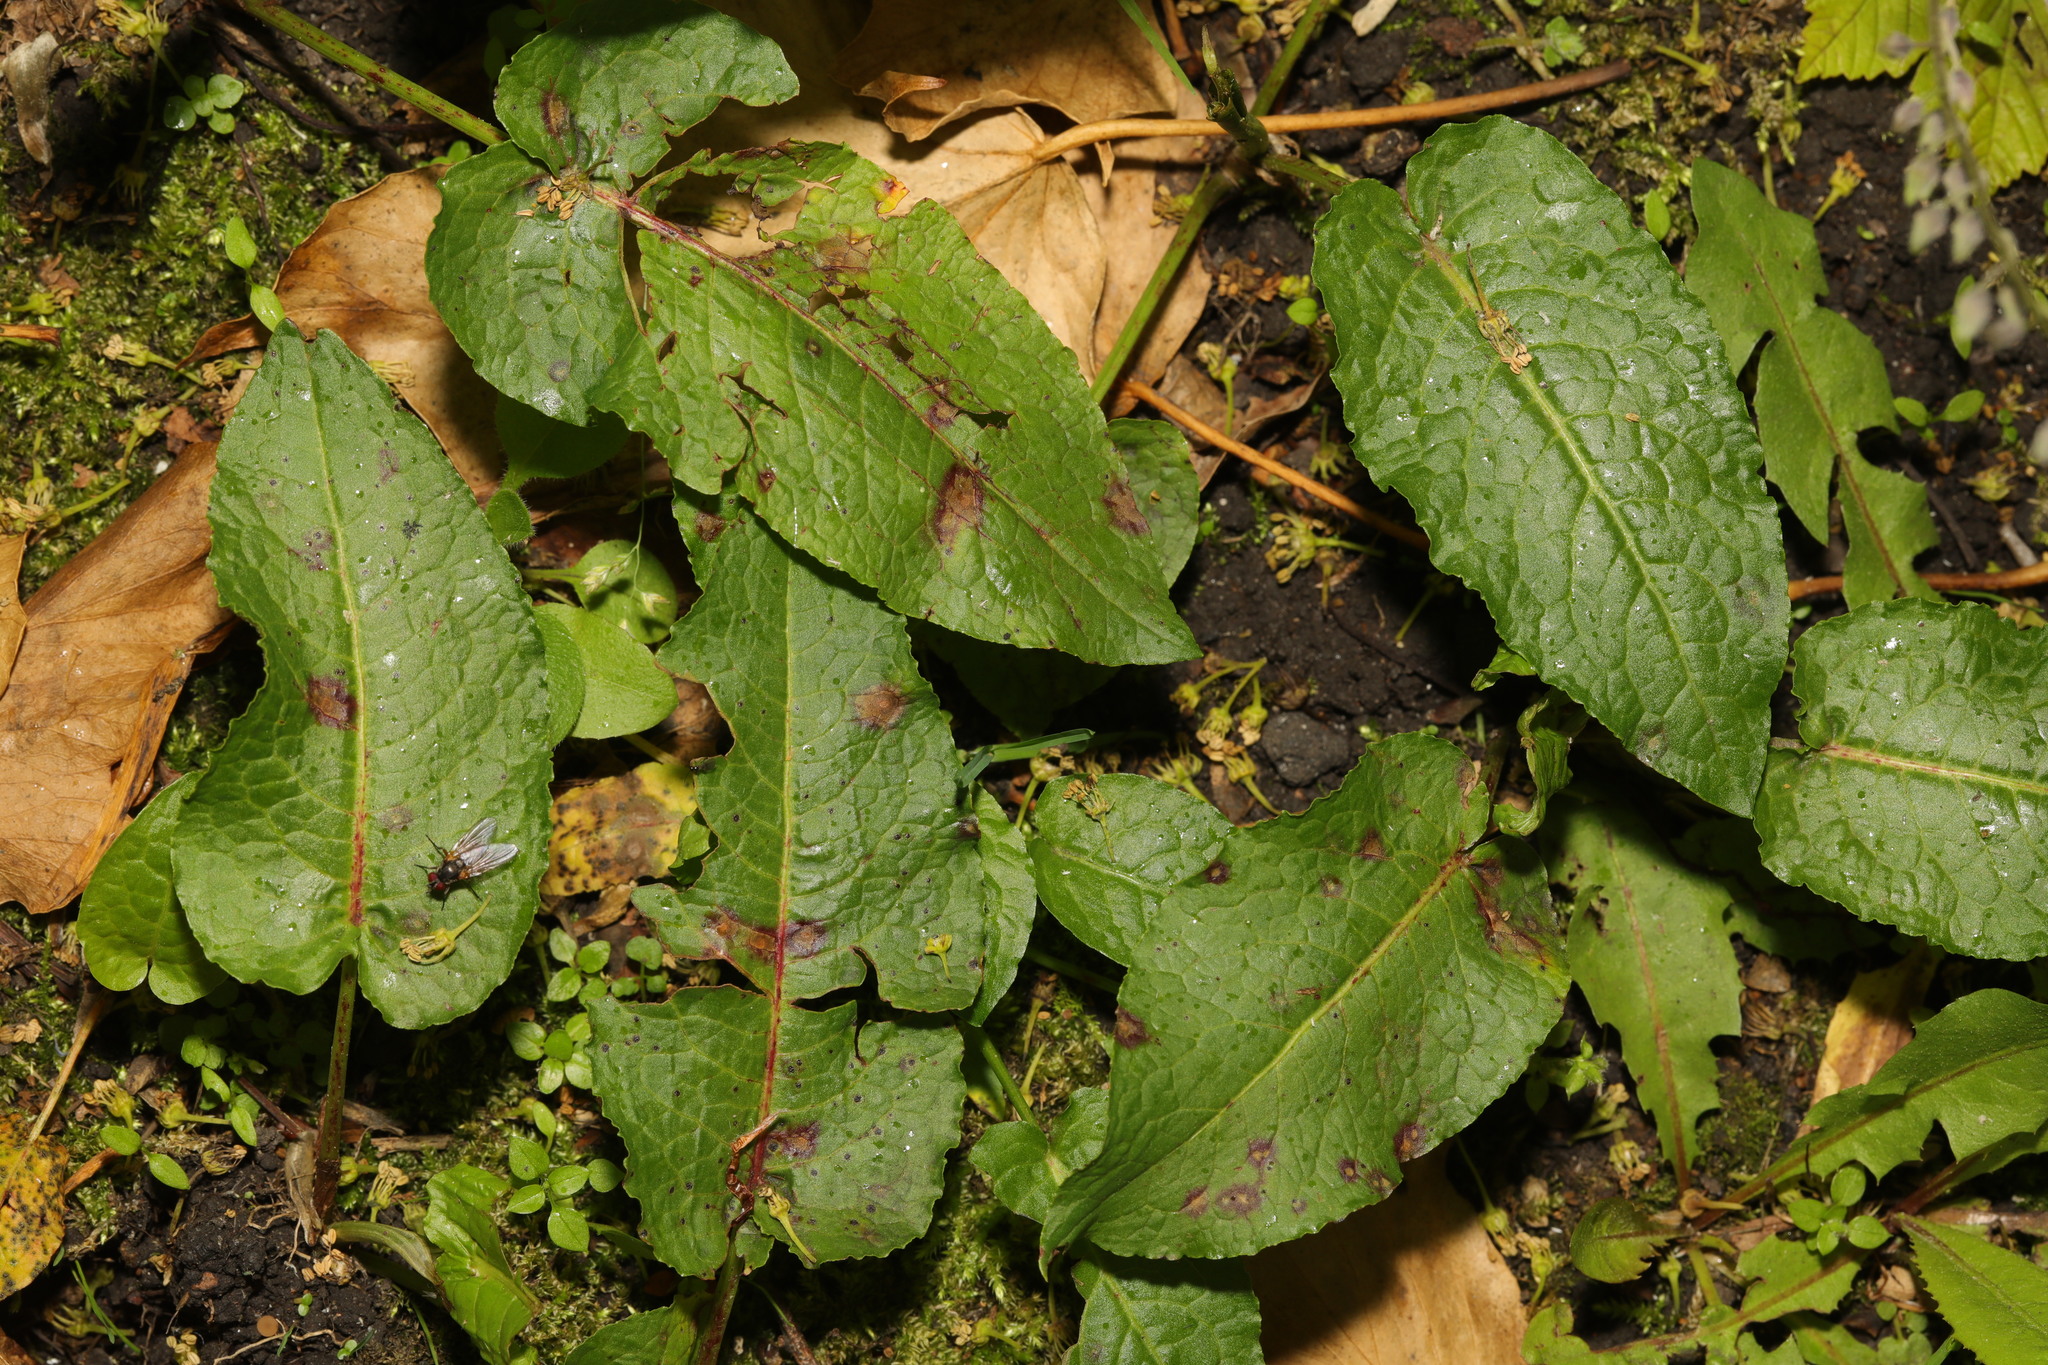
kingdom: Plantae
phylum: Tracheophyta
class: Magnoliopsida
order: Caryophyllales
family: Polygonaceae
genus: Rumex
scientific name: Rumex obtusifolius
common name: Bitter dock
